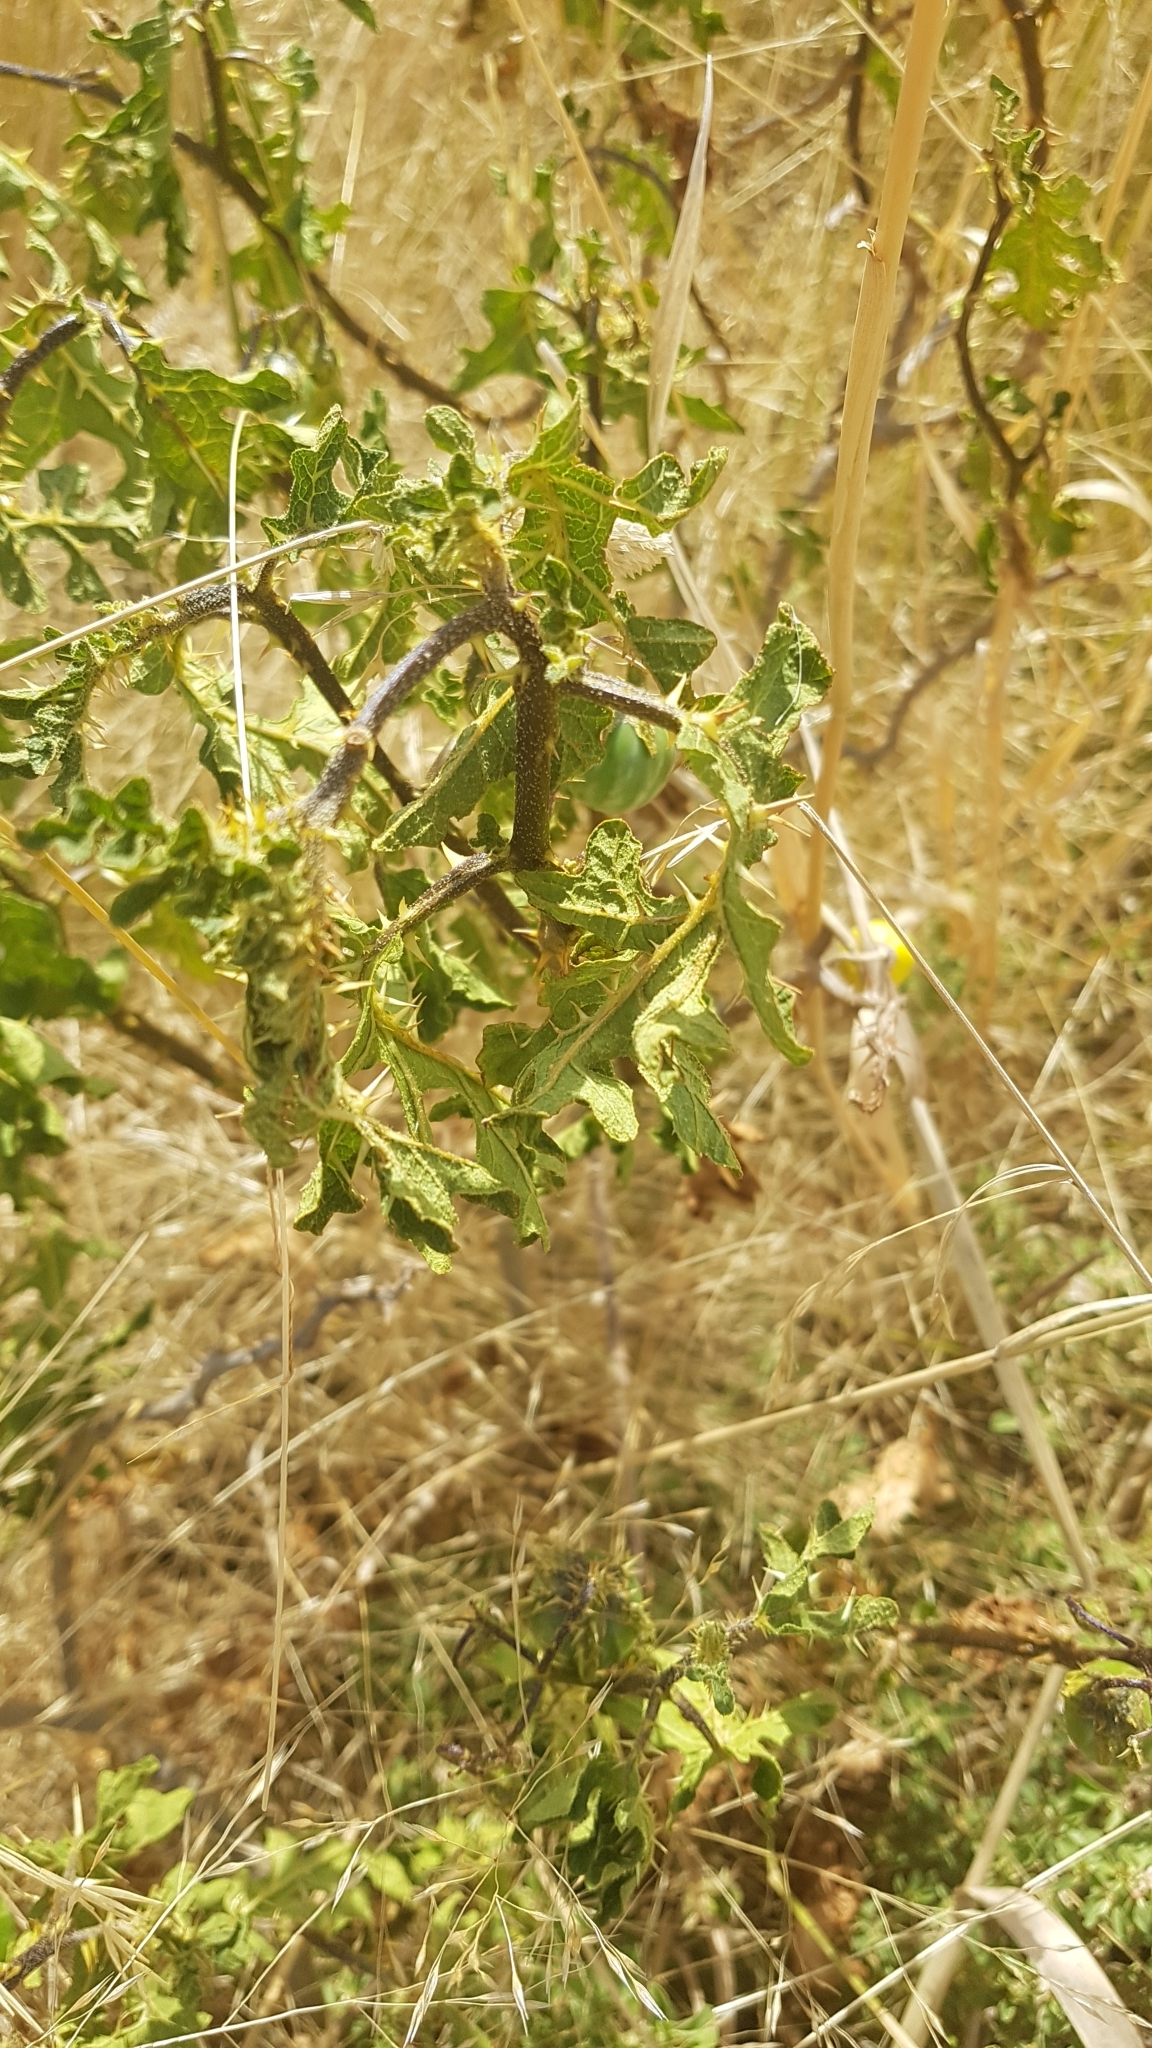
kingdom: Plantae
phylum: Tracheophyta
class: Magnoliopsida
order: Solanales
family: Solanaceae
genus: Solanum
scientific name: Solanum linnaeanum
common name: Nightshade
